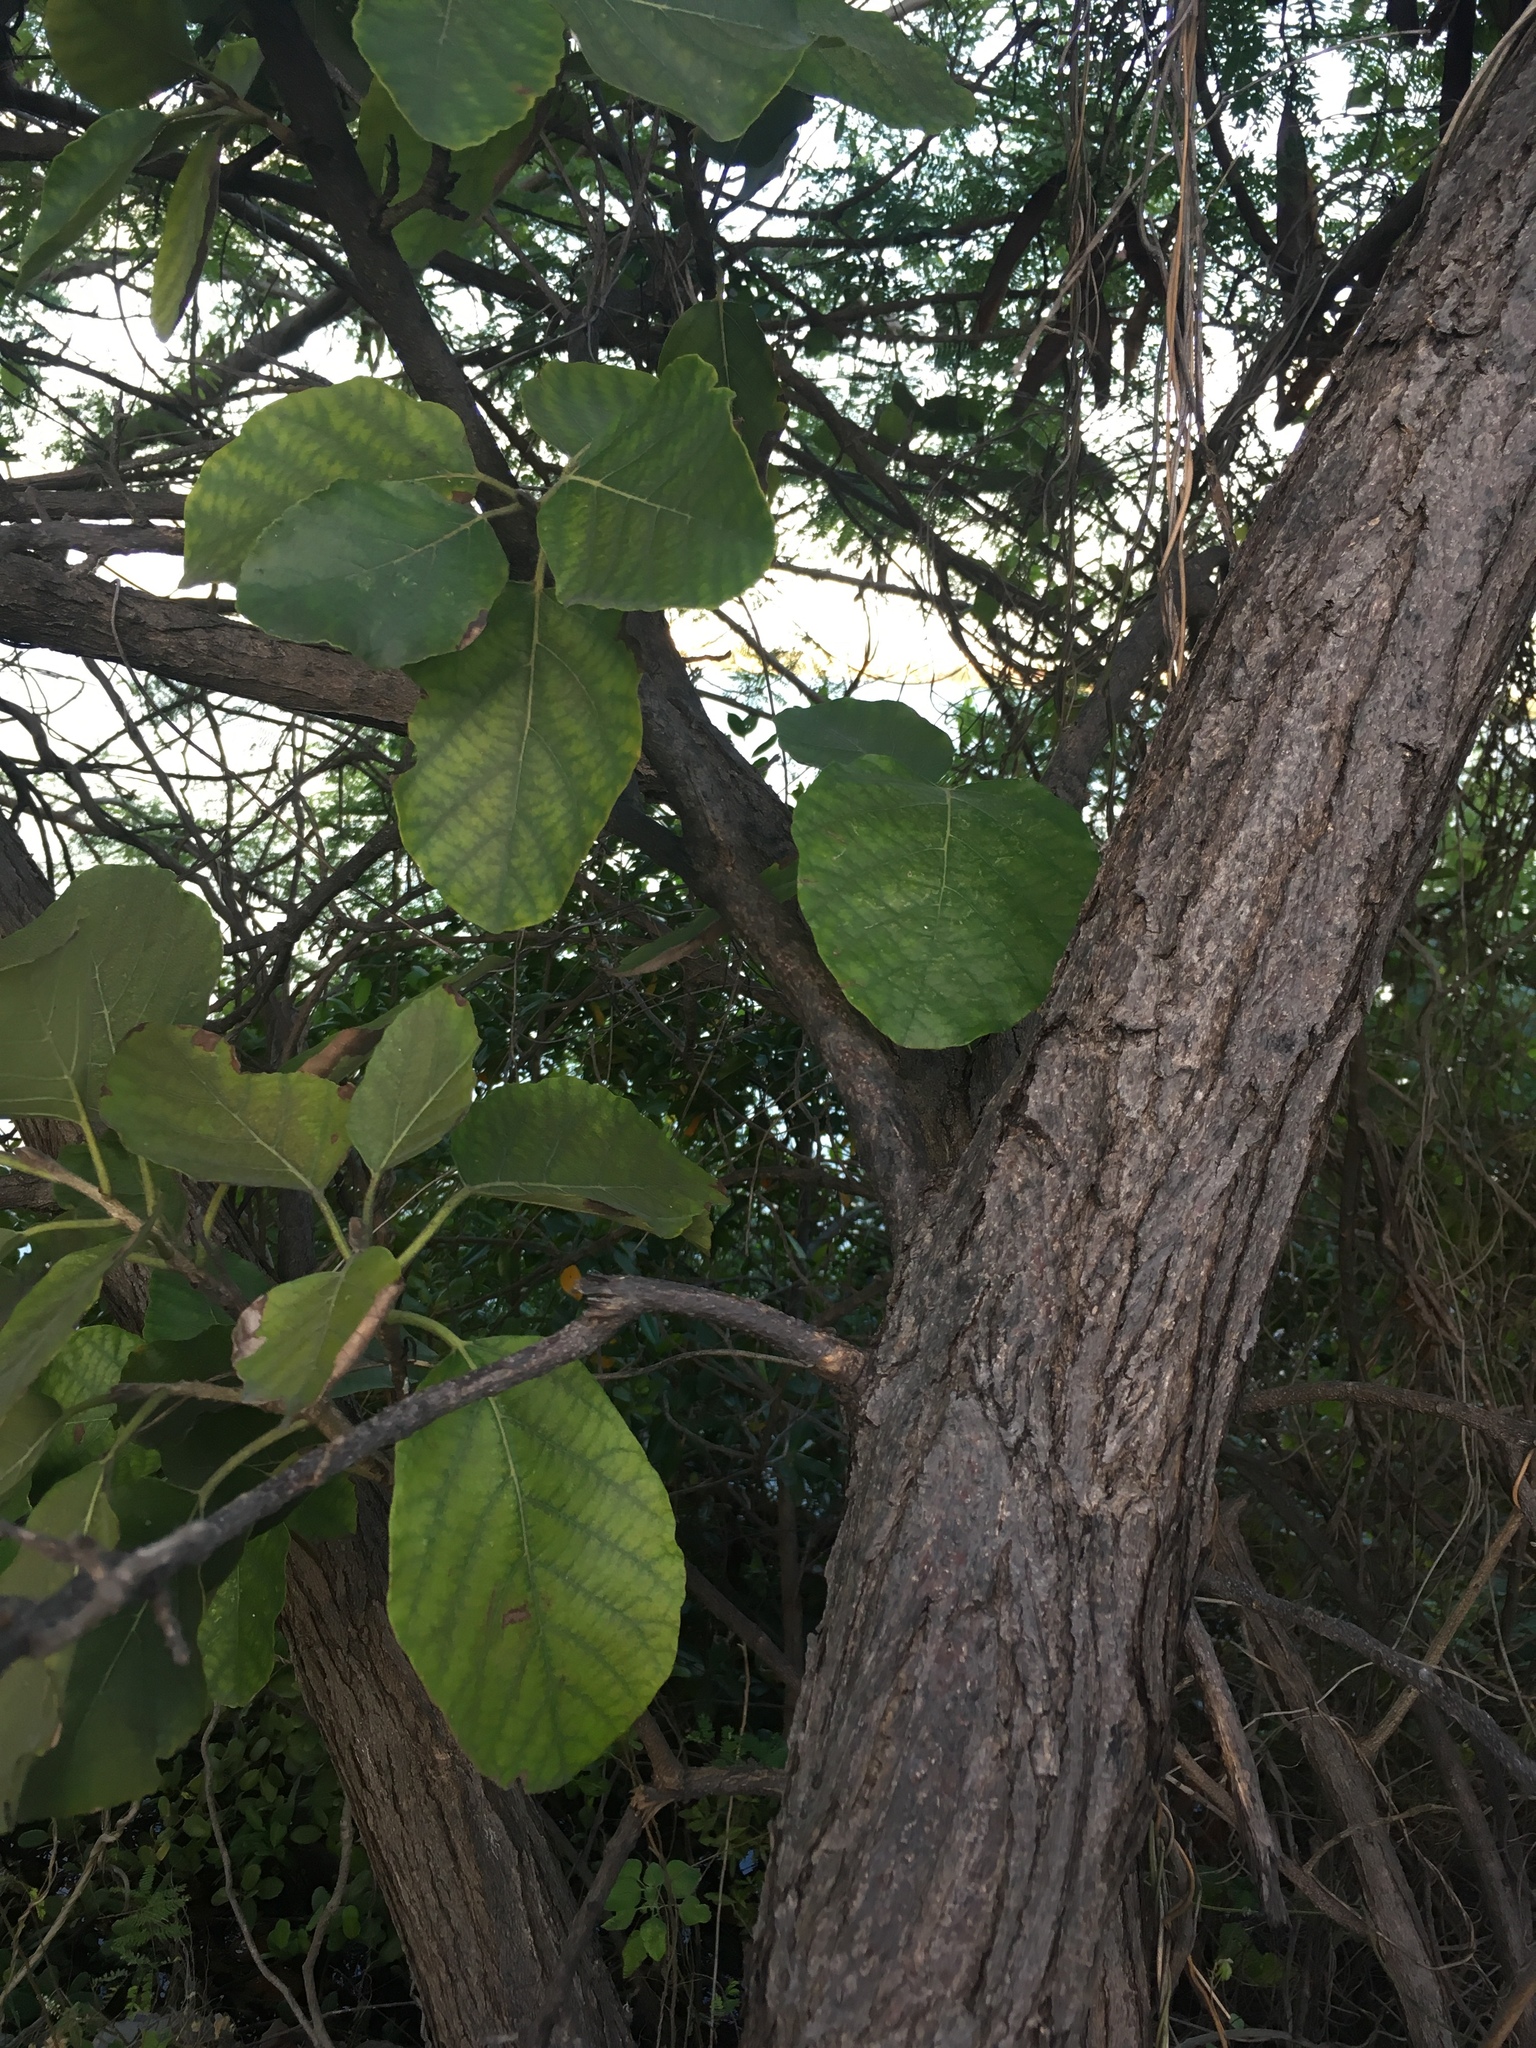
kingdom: Plantae
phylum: Tracheophyta
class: Magnoliopsida
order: Boraginales
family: Cordiaceae
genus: Cordia
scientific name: Cordia dodecandra
